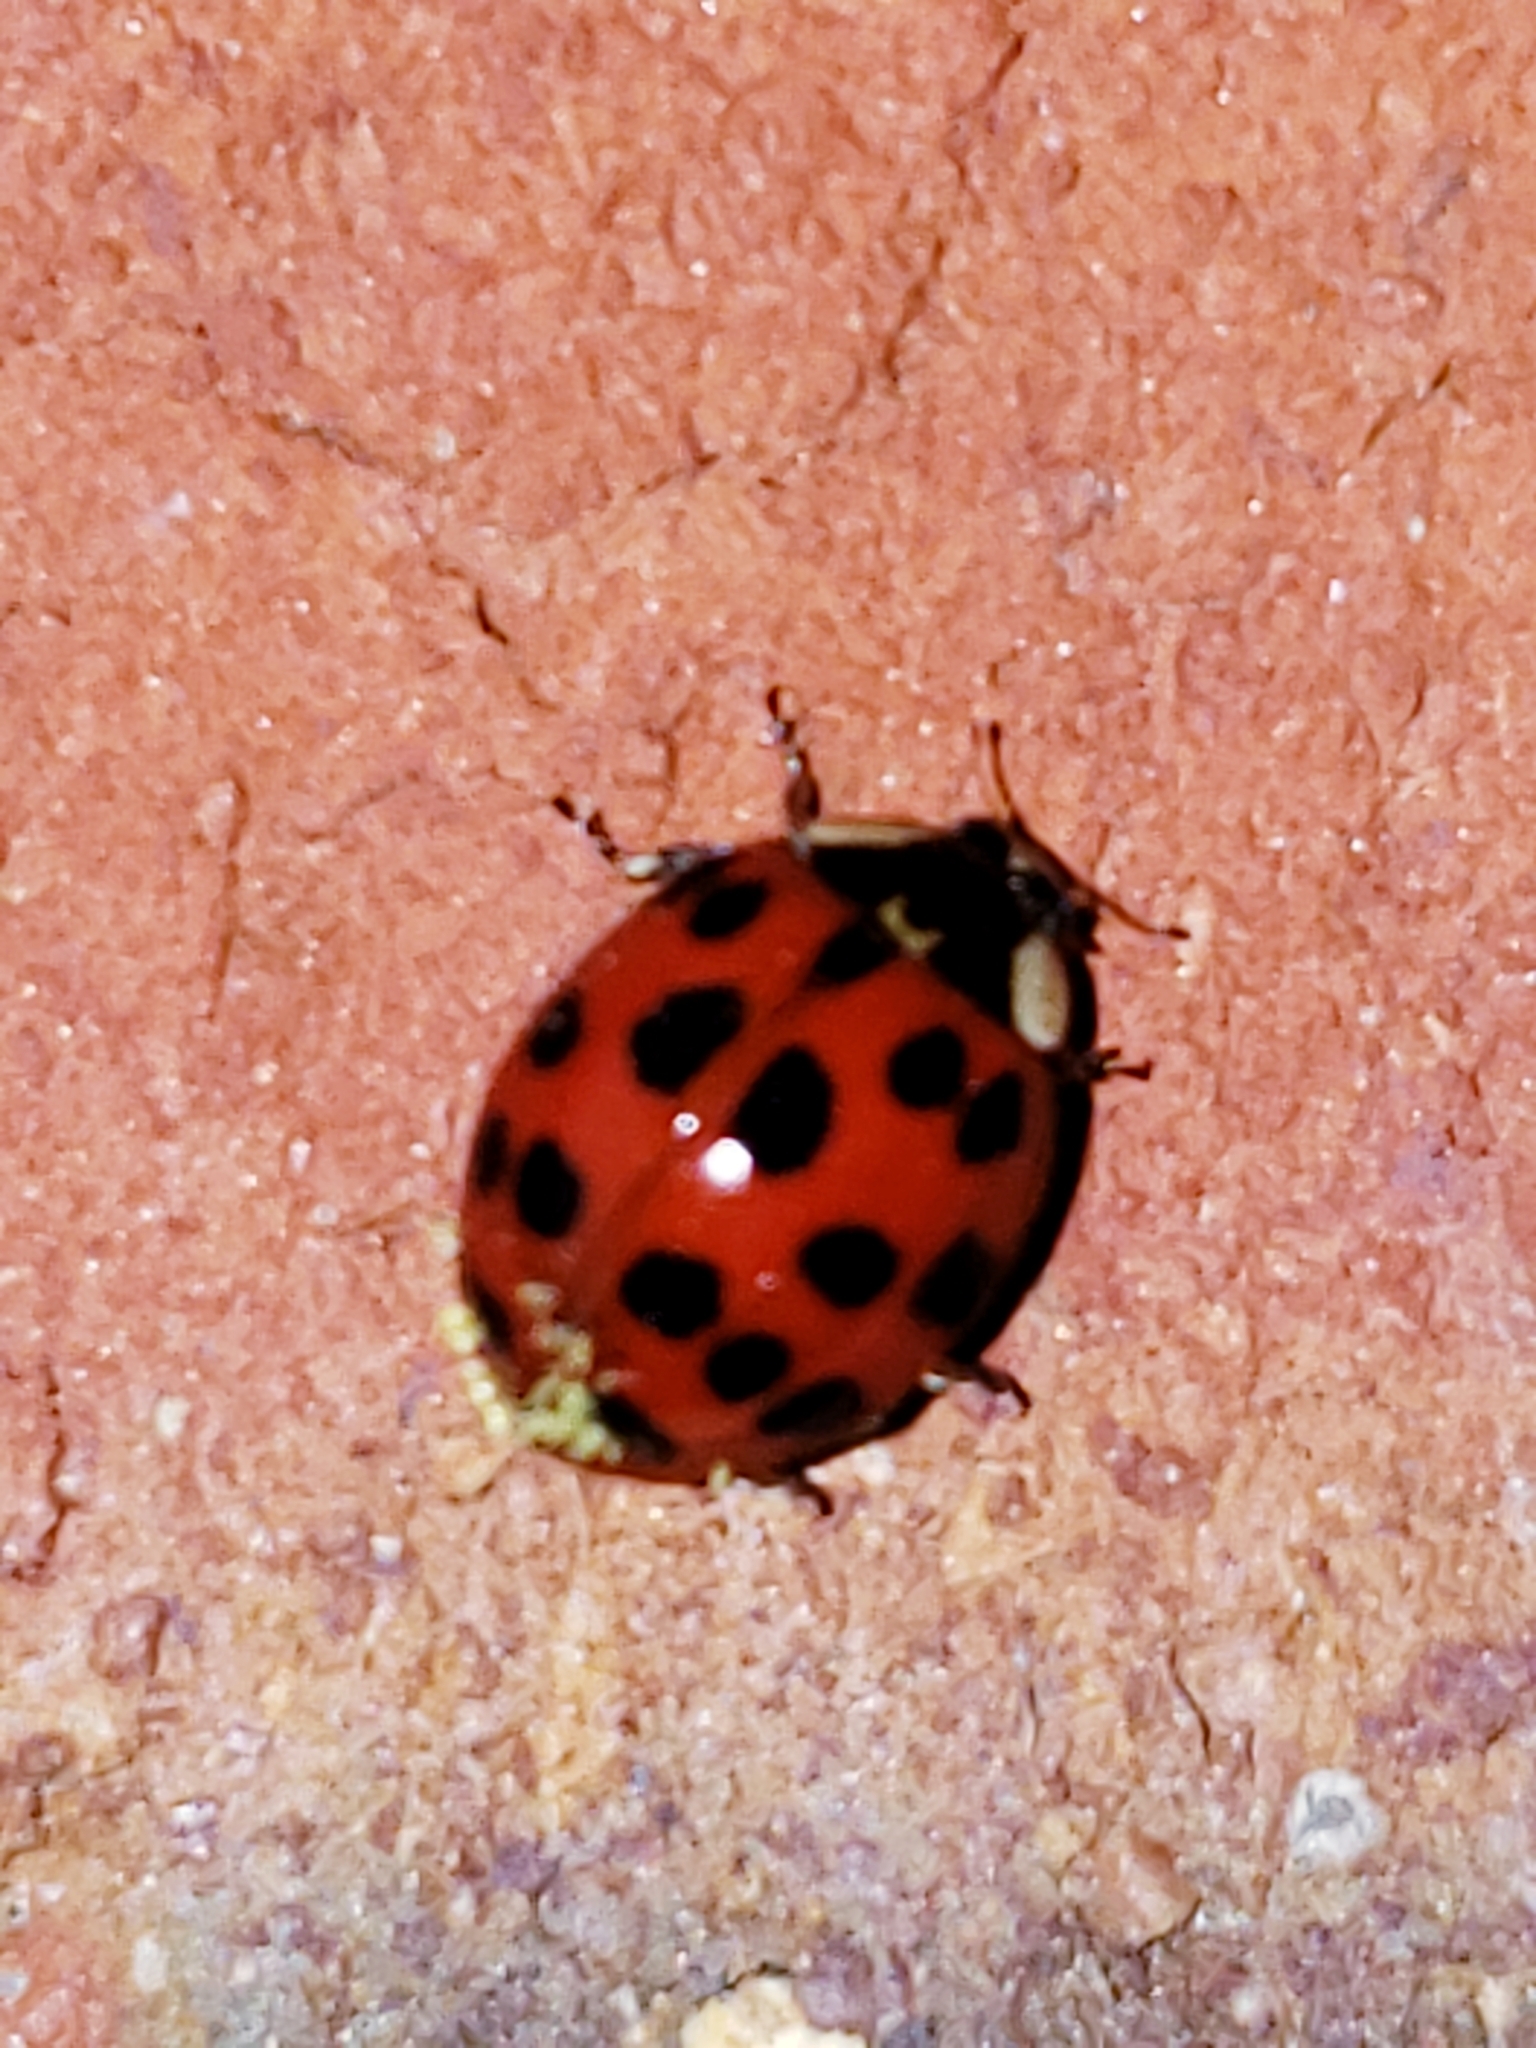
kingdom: Animalia
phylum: Arthropoda
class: Insecta
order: Coleoptera
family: Coccinellidae
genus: Harmonia
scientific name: Harmonia axyridis
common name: Harlequin ladybird
